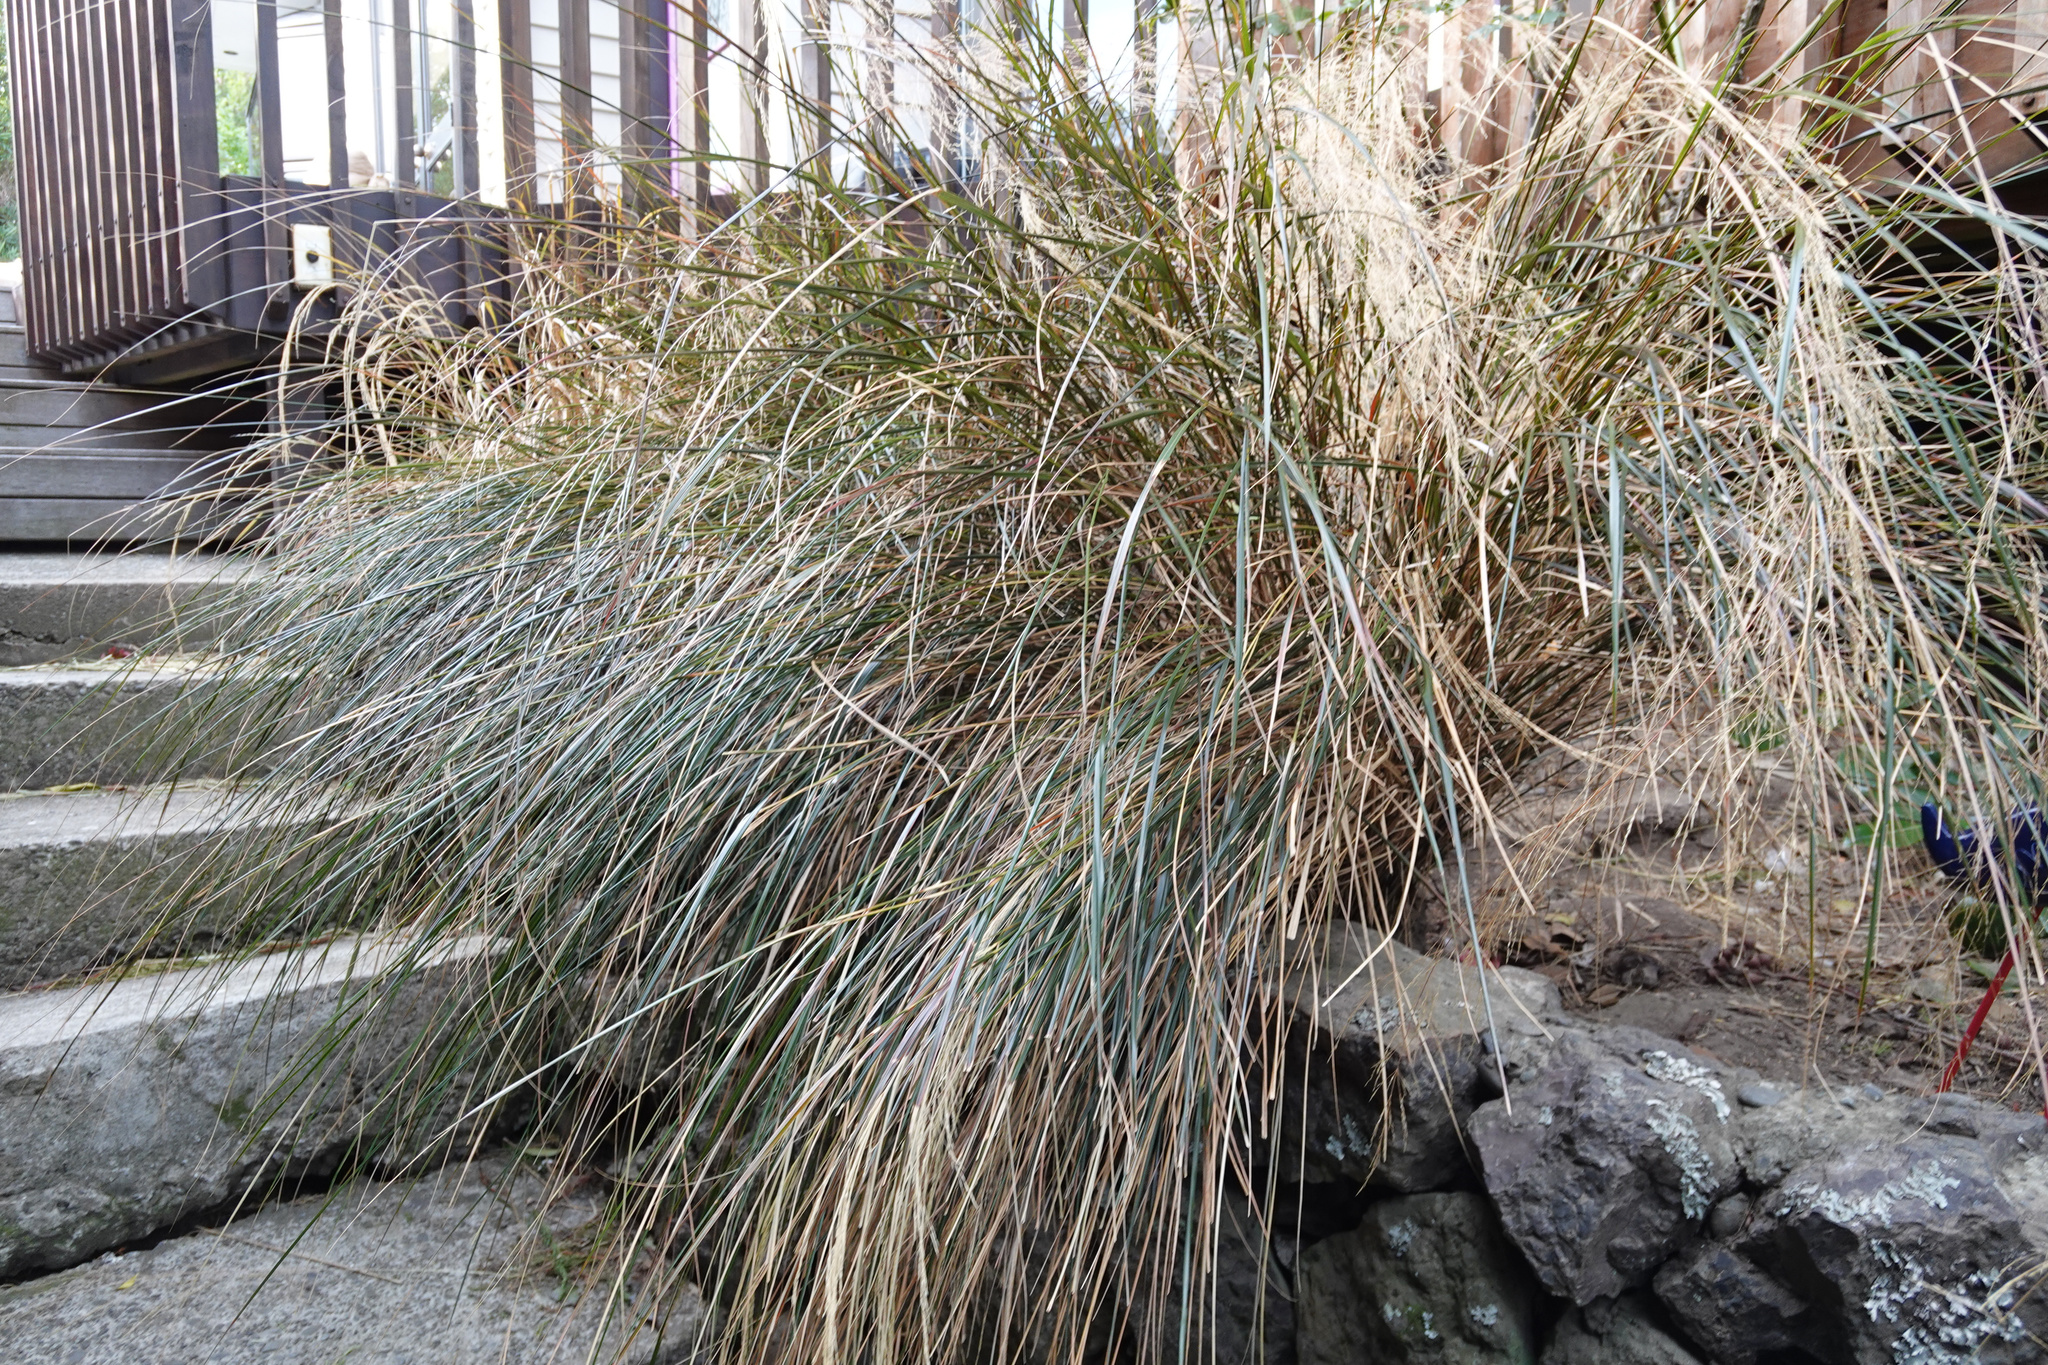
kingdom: Plantae
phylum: Tracheophyta
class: Liliopsida
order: Poales
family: Poaceae
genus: Anemanthele
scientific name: Anemanthele lessoniana
